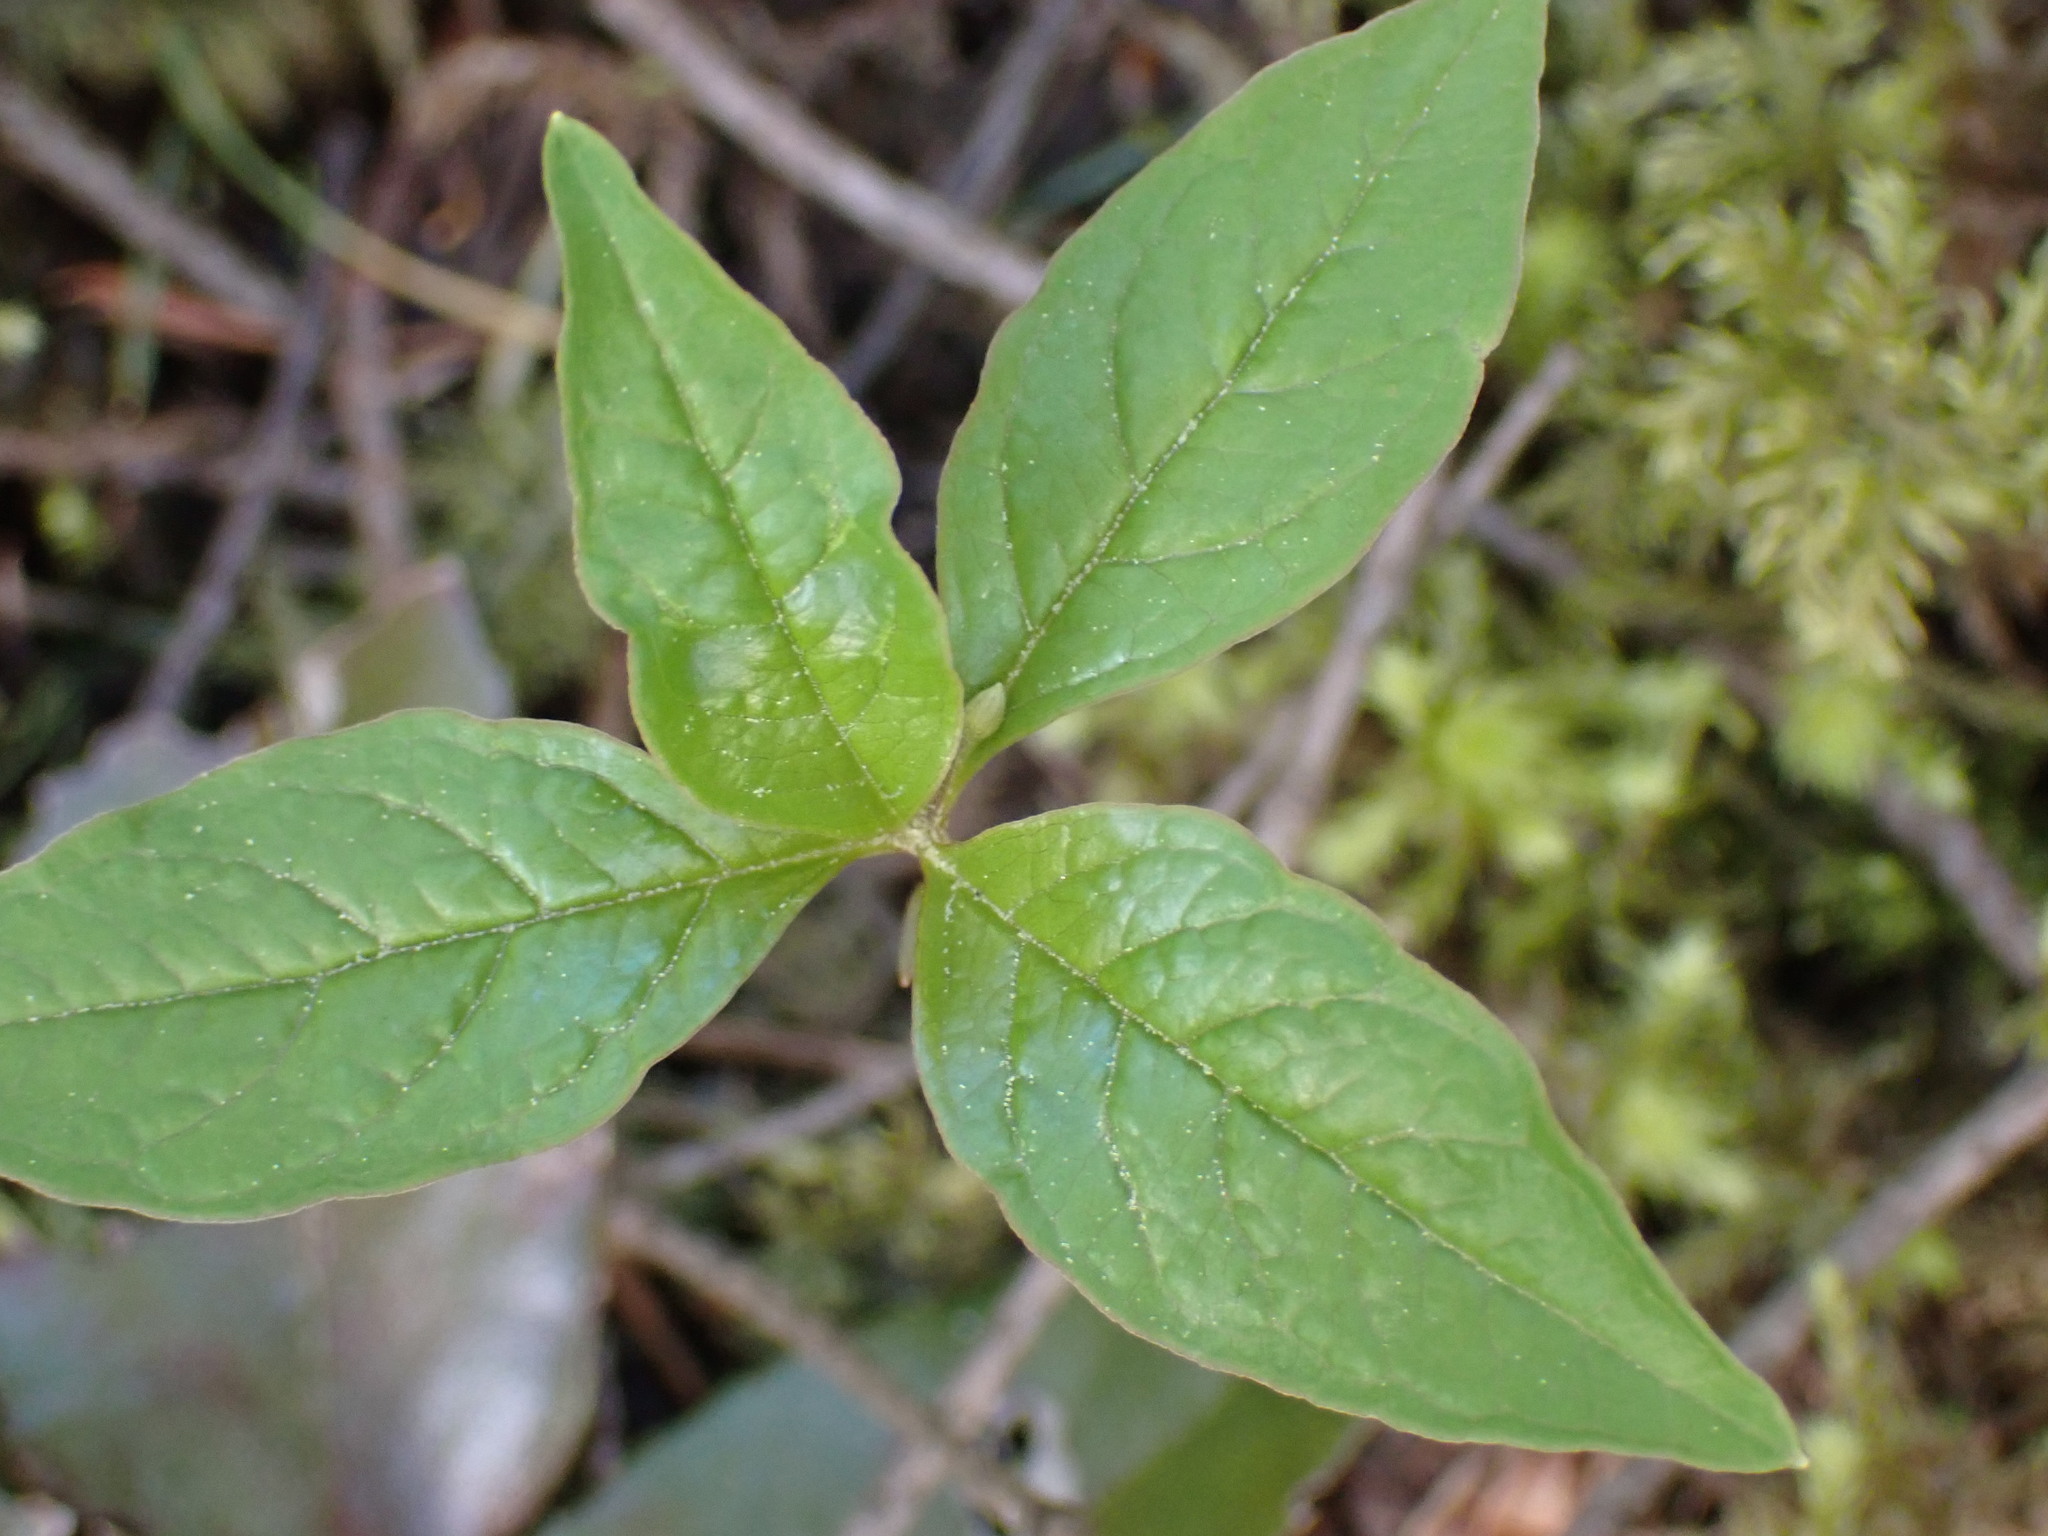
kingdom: Plantae
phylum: Tracheophyta
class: Magnoliopsida
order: Ericales
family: Primulaceae
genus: Lysimachia
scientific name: Lysimachia latifolia
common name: Pacific starflower
